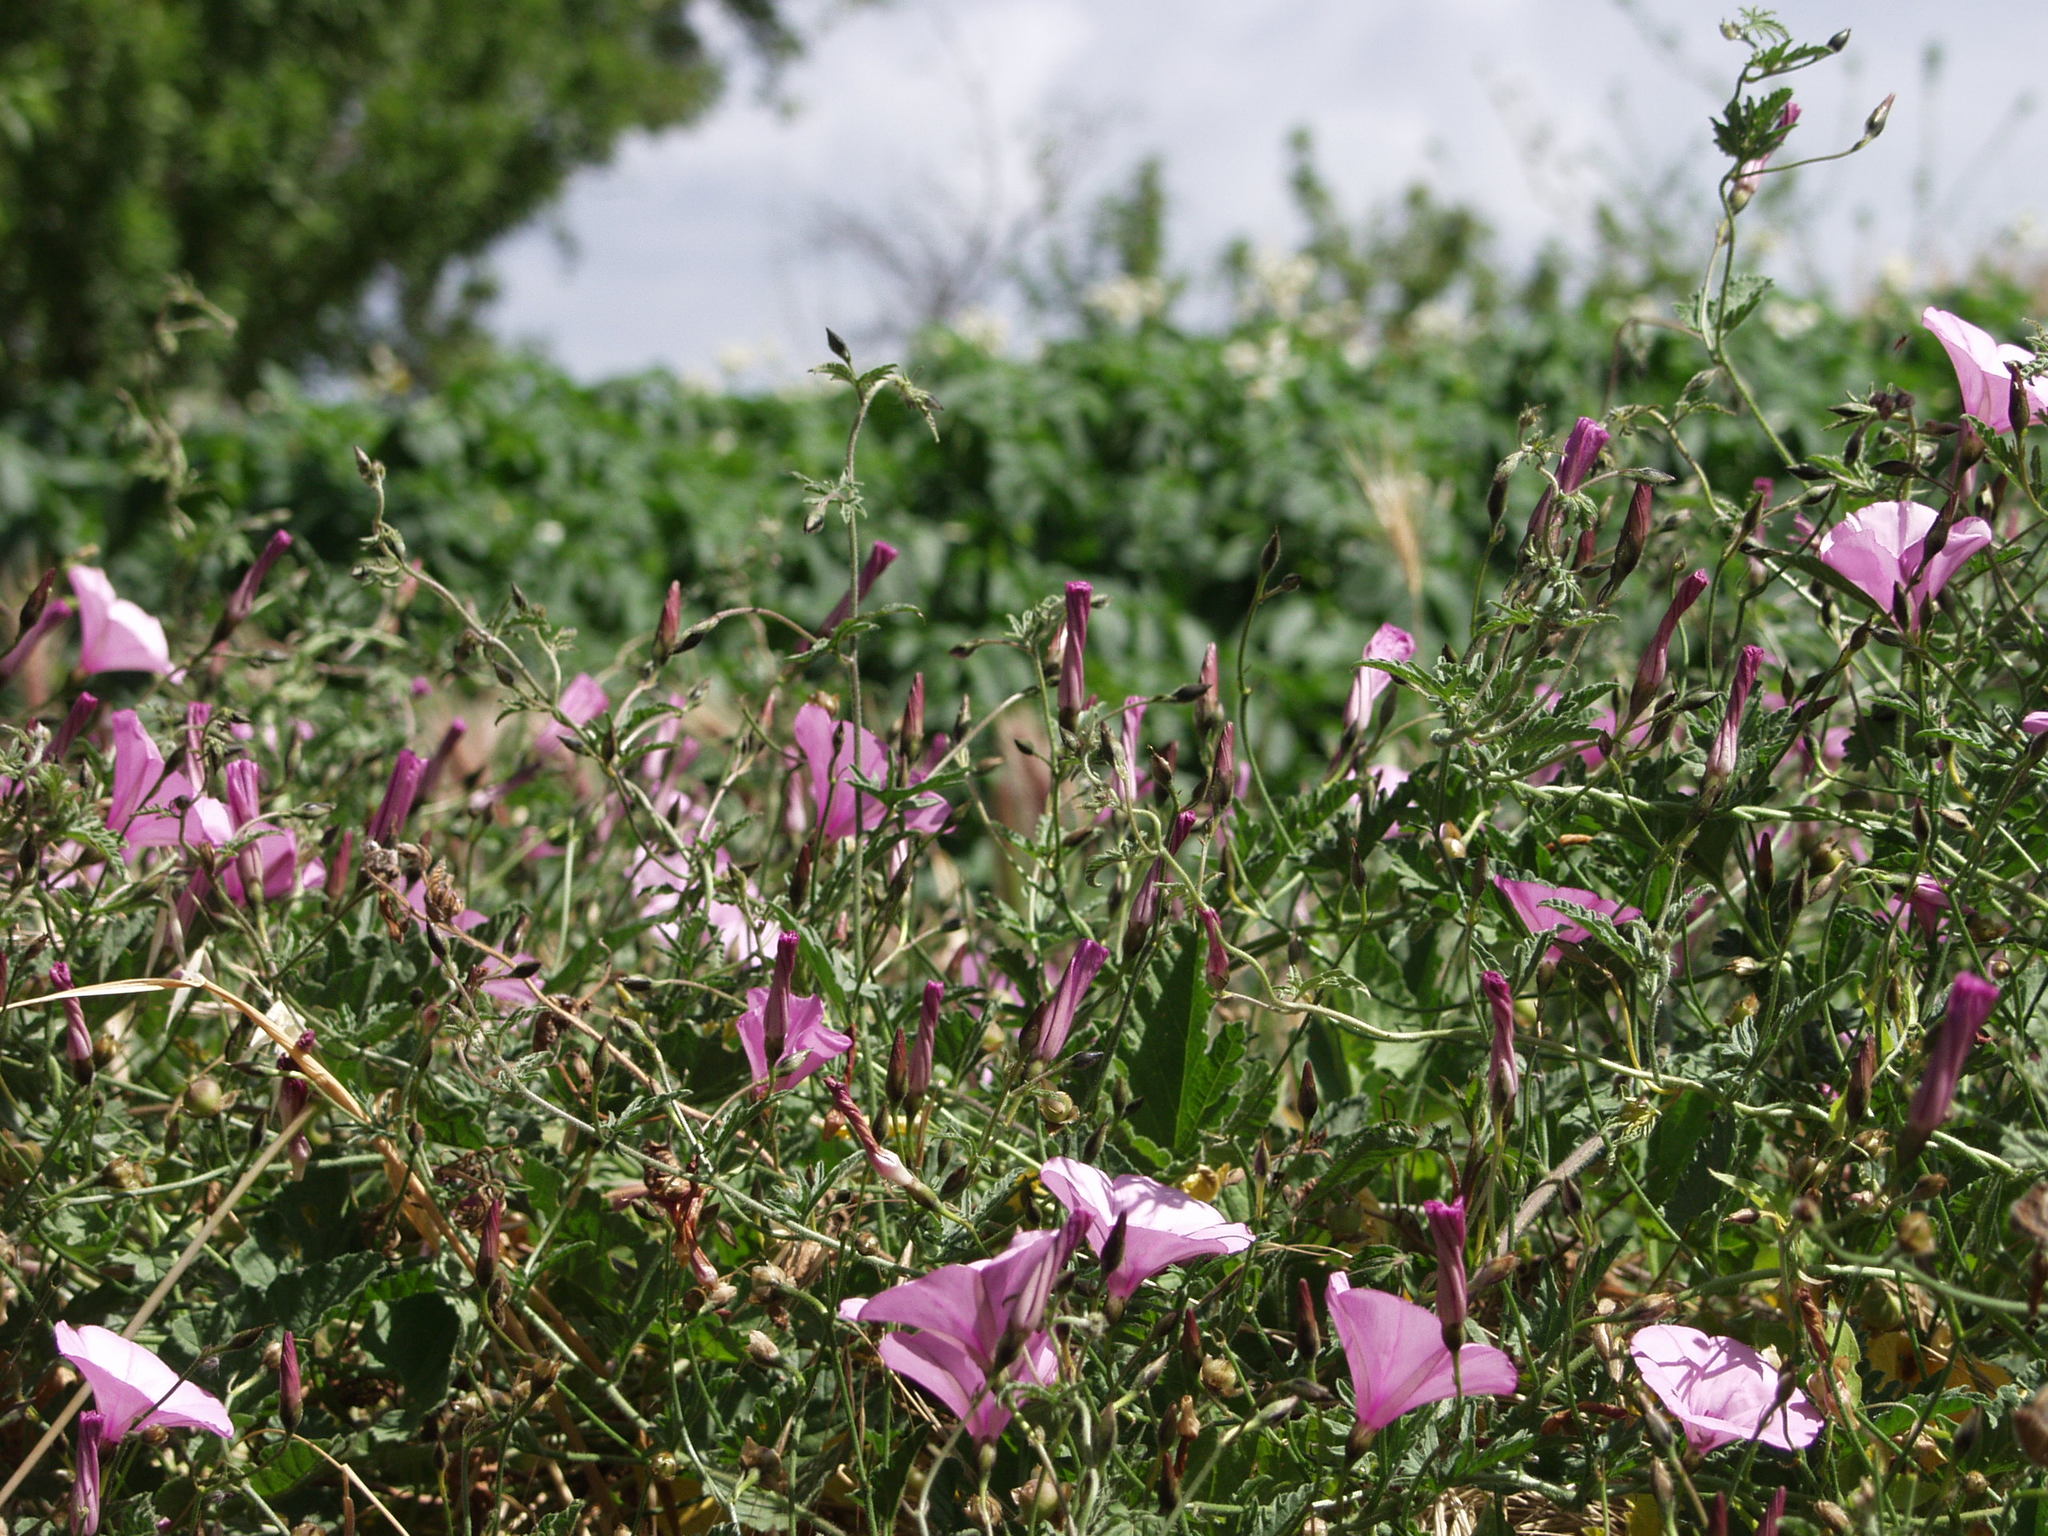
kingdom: Plantae
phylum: Tracheophyta
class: Magnoliopsida
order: Solanales
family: Convolvulaceae
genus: Convolvulus
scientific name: Convolvulus althaeoides
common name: Mallow bindweed
